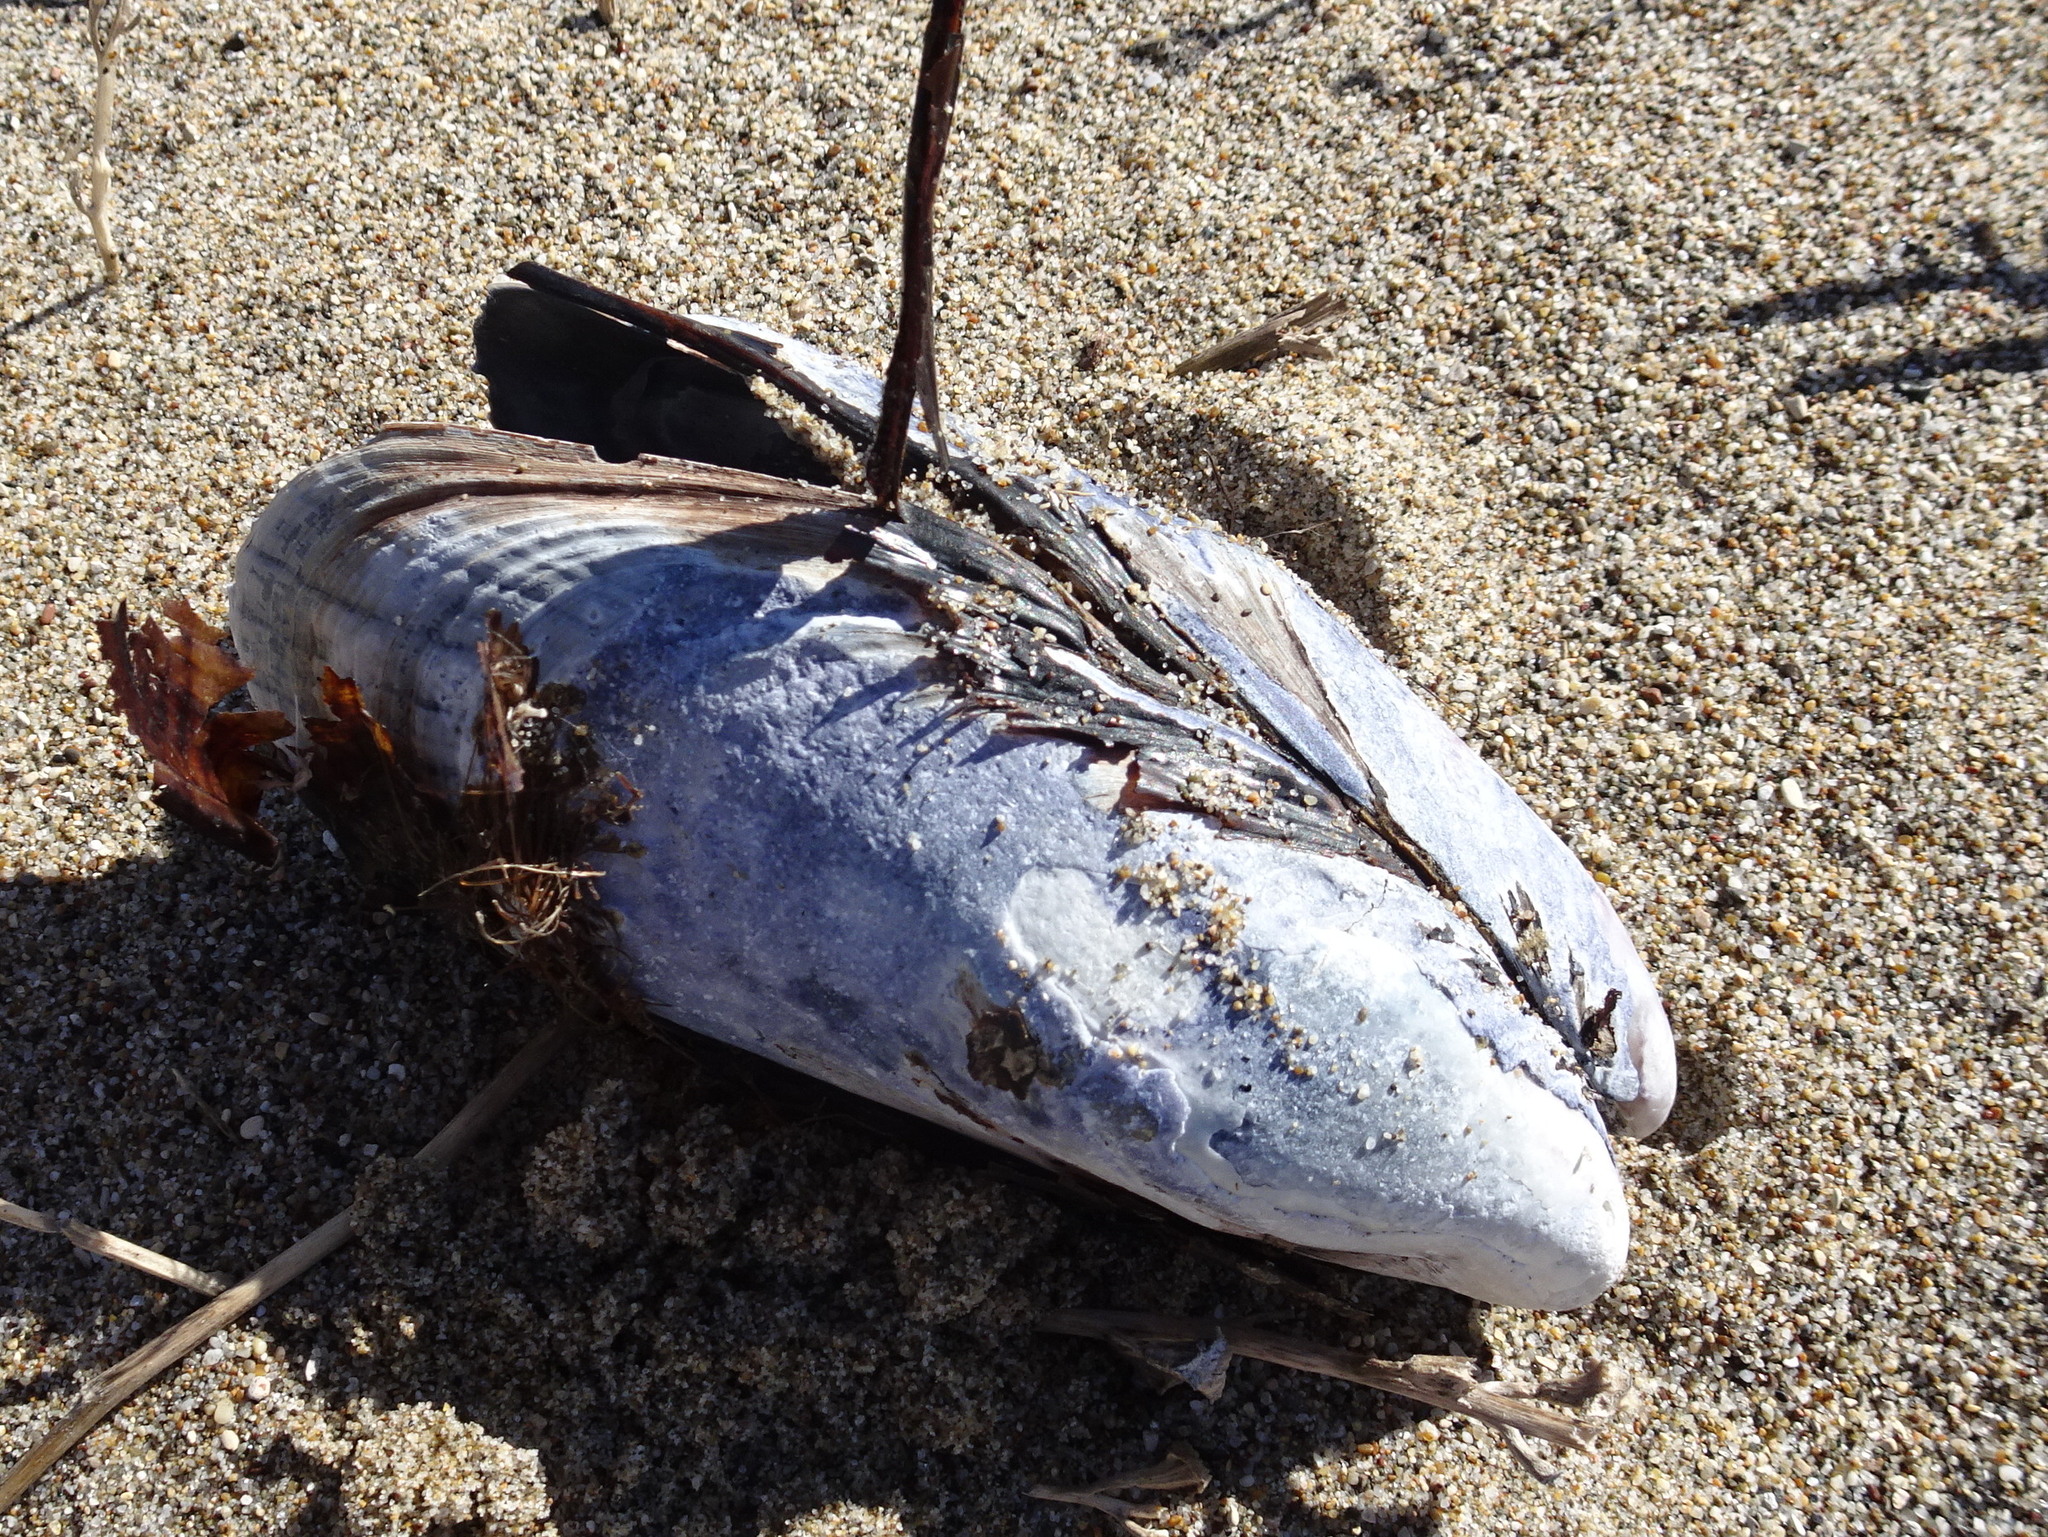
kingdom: Animalia
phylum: Mollusca
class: Bivalvia
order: Mytilida
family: Mytilidae
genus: Mytilus
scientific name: Mytilus californianus
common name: California mussel
